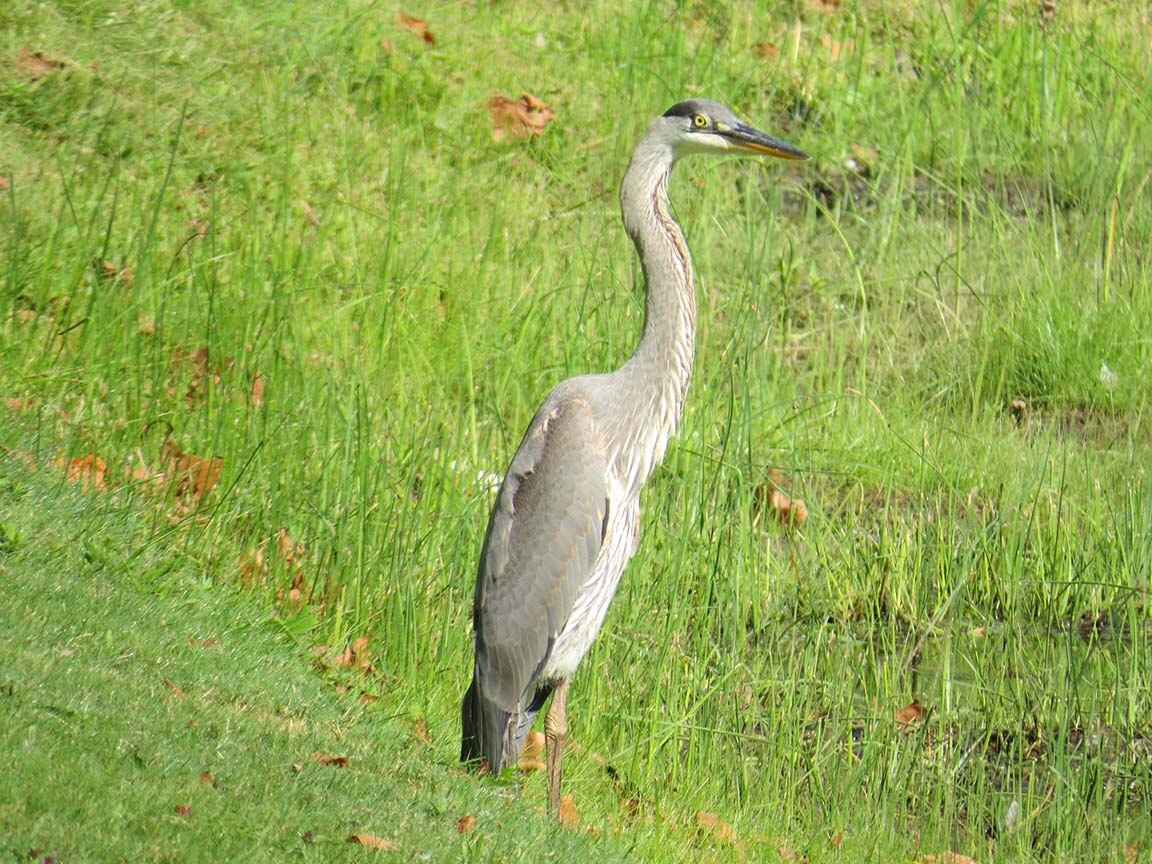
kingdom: Animalia
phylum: Chordata
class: Aves
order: Pelecaniformes
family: Ardeidae
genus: Ardea
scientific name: Ardea herodias
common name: Great blue heron
